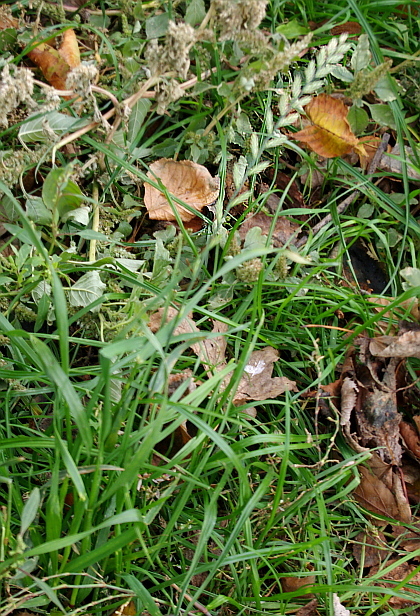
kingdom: Plantae
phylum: Tracheophyta
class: Liliopsida
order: Poales
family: Poaceae
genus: Lolium
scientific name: Lolium perenne
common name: Perennial ryegrass
